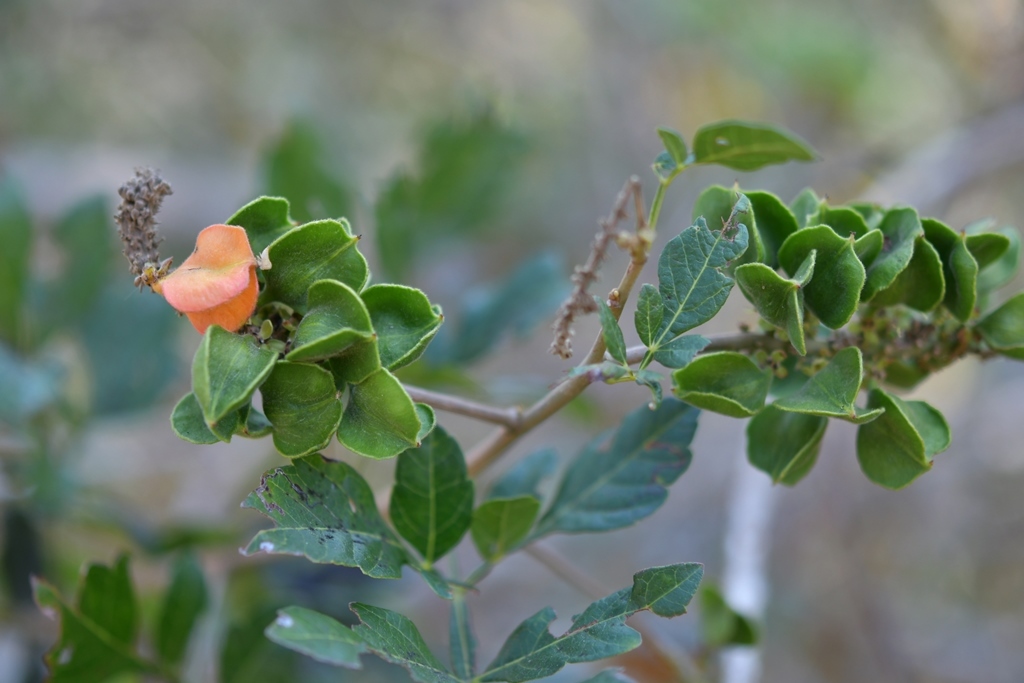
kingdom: Plantae
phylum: Tracheophyta
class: Magnoliopsida
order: Sapindales
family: Sapindaceae
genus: Paullinia
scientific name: Paullinia fuscescens
